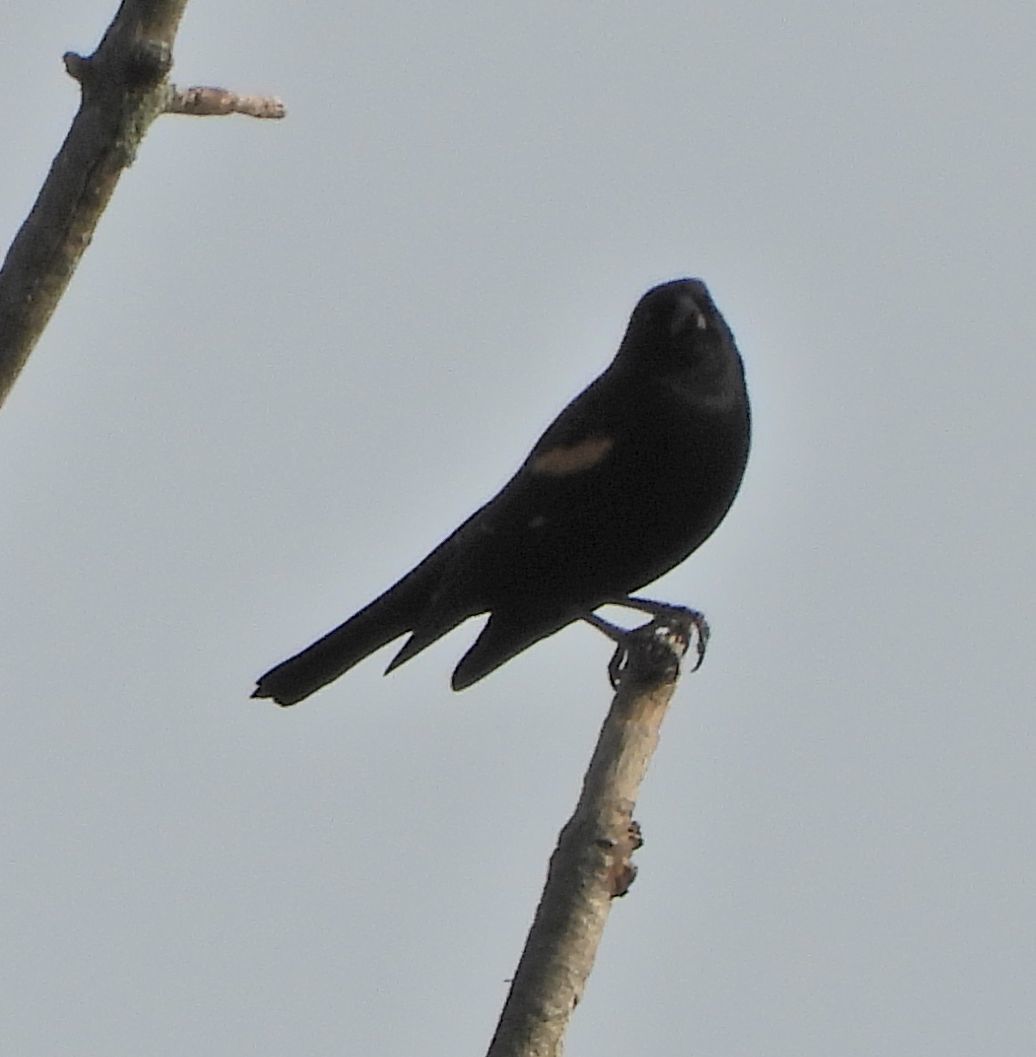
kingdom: Animalia
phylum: Chordata
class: Aves
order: Passeriformes
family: Icteridae
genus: Agelaius
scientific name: Agelaius phoeniceus
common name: Red-winged blackbird
